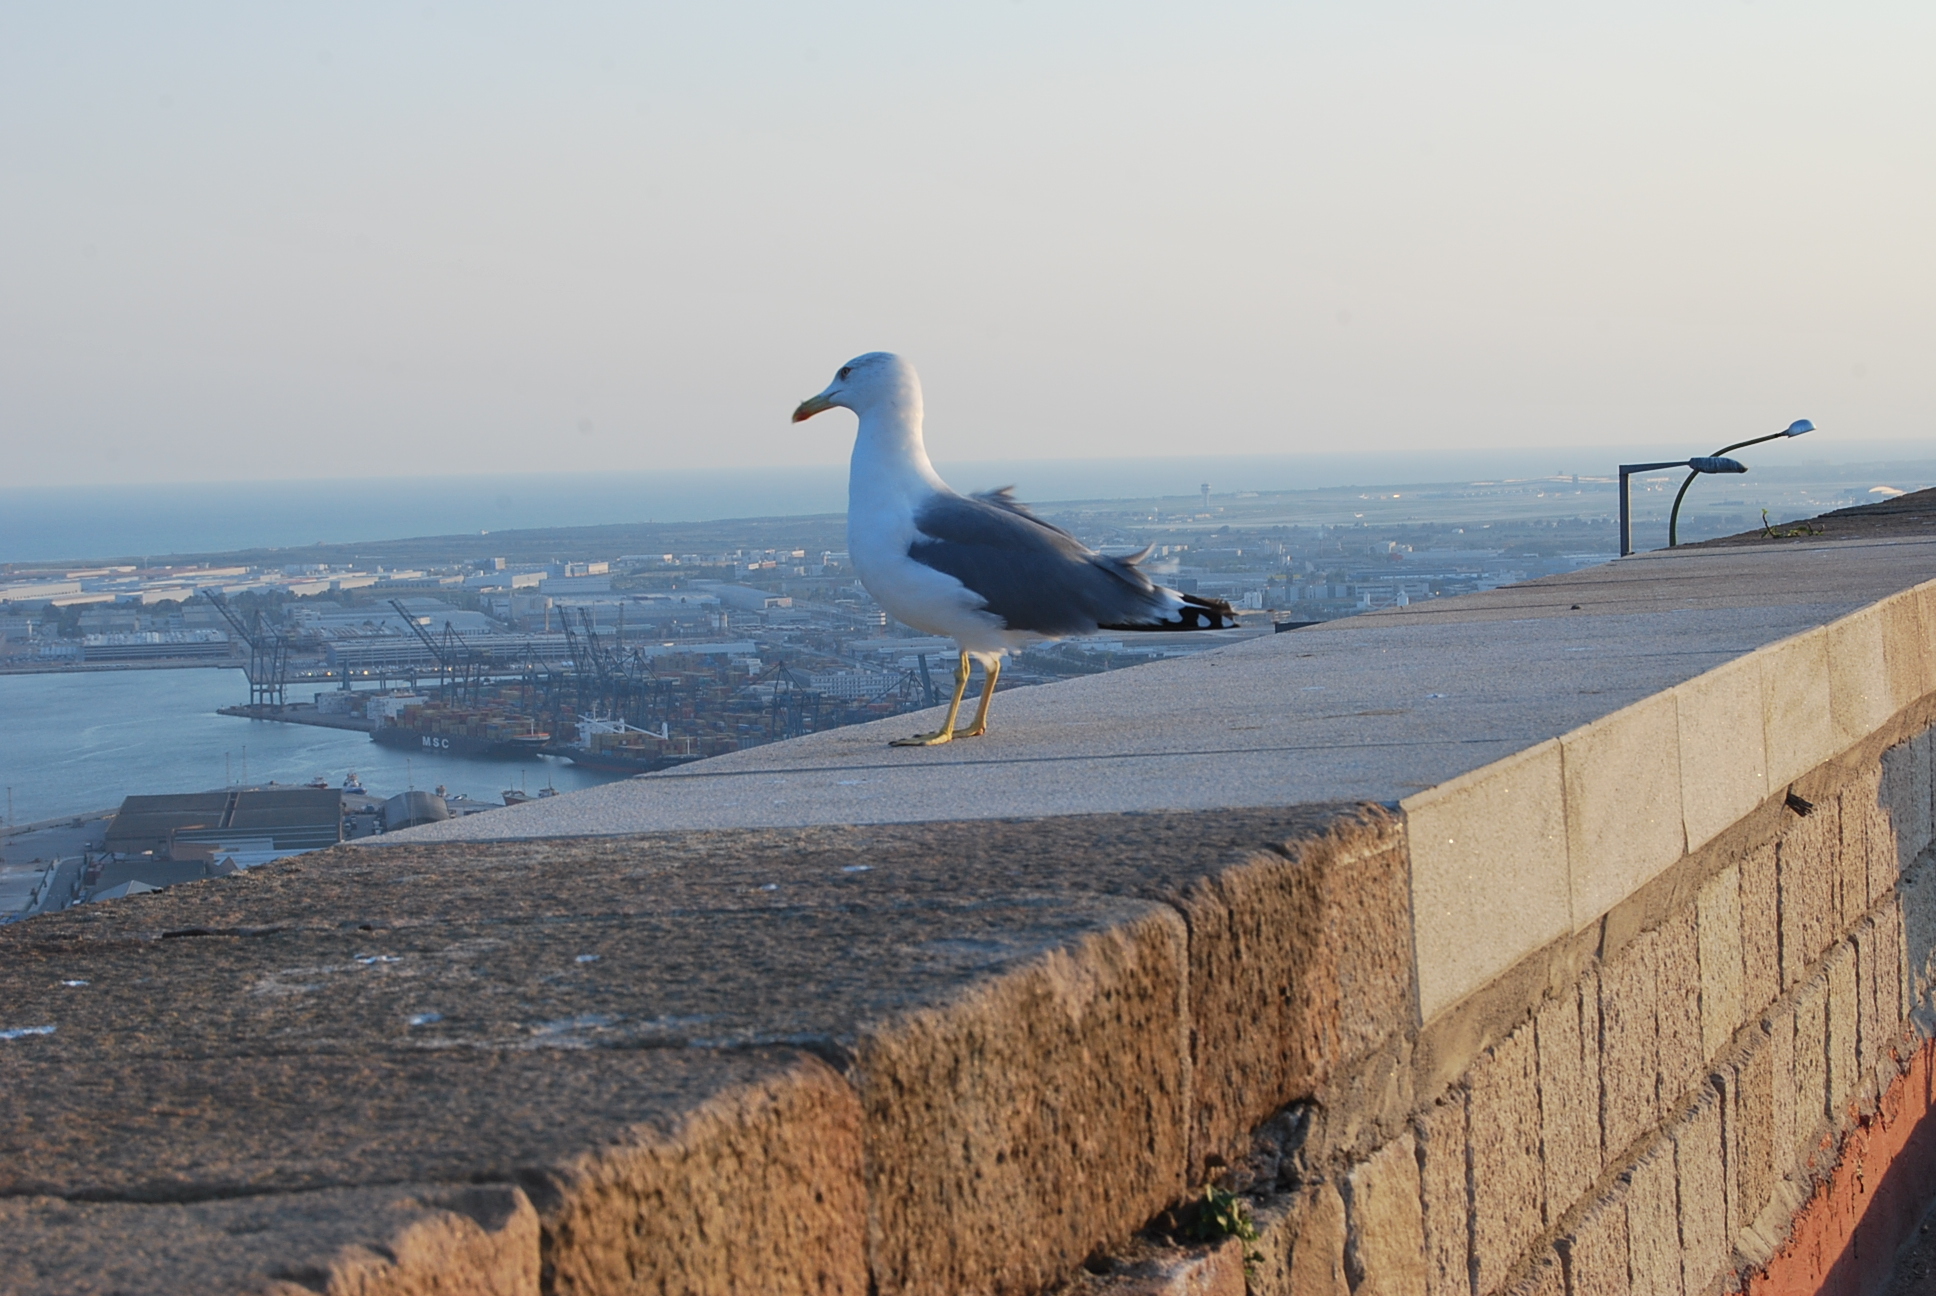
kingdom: Animalia
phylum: Chordata
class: Aves
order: Charadriiformes
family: Laridae
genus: Larus
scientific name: Larus michahellis
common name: Yellow-legged gull
